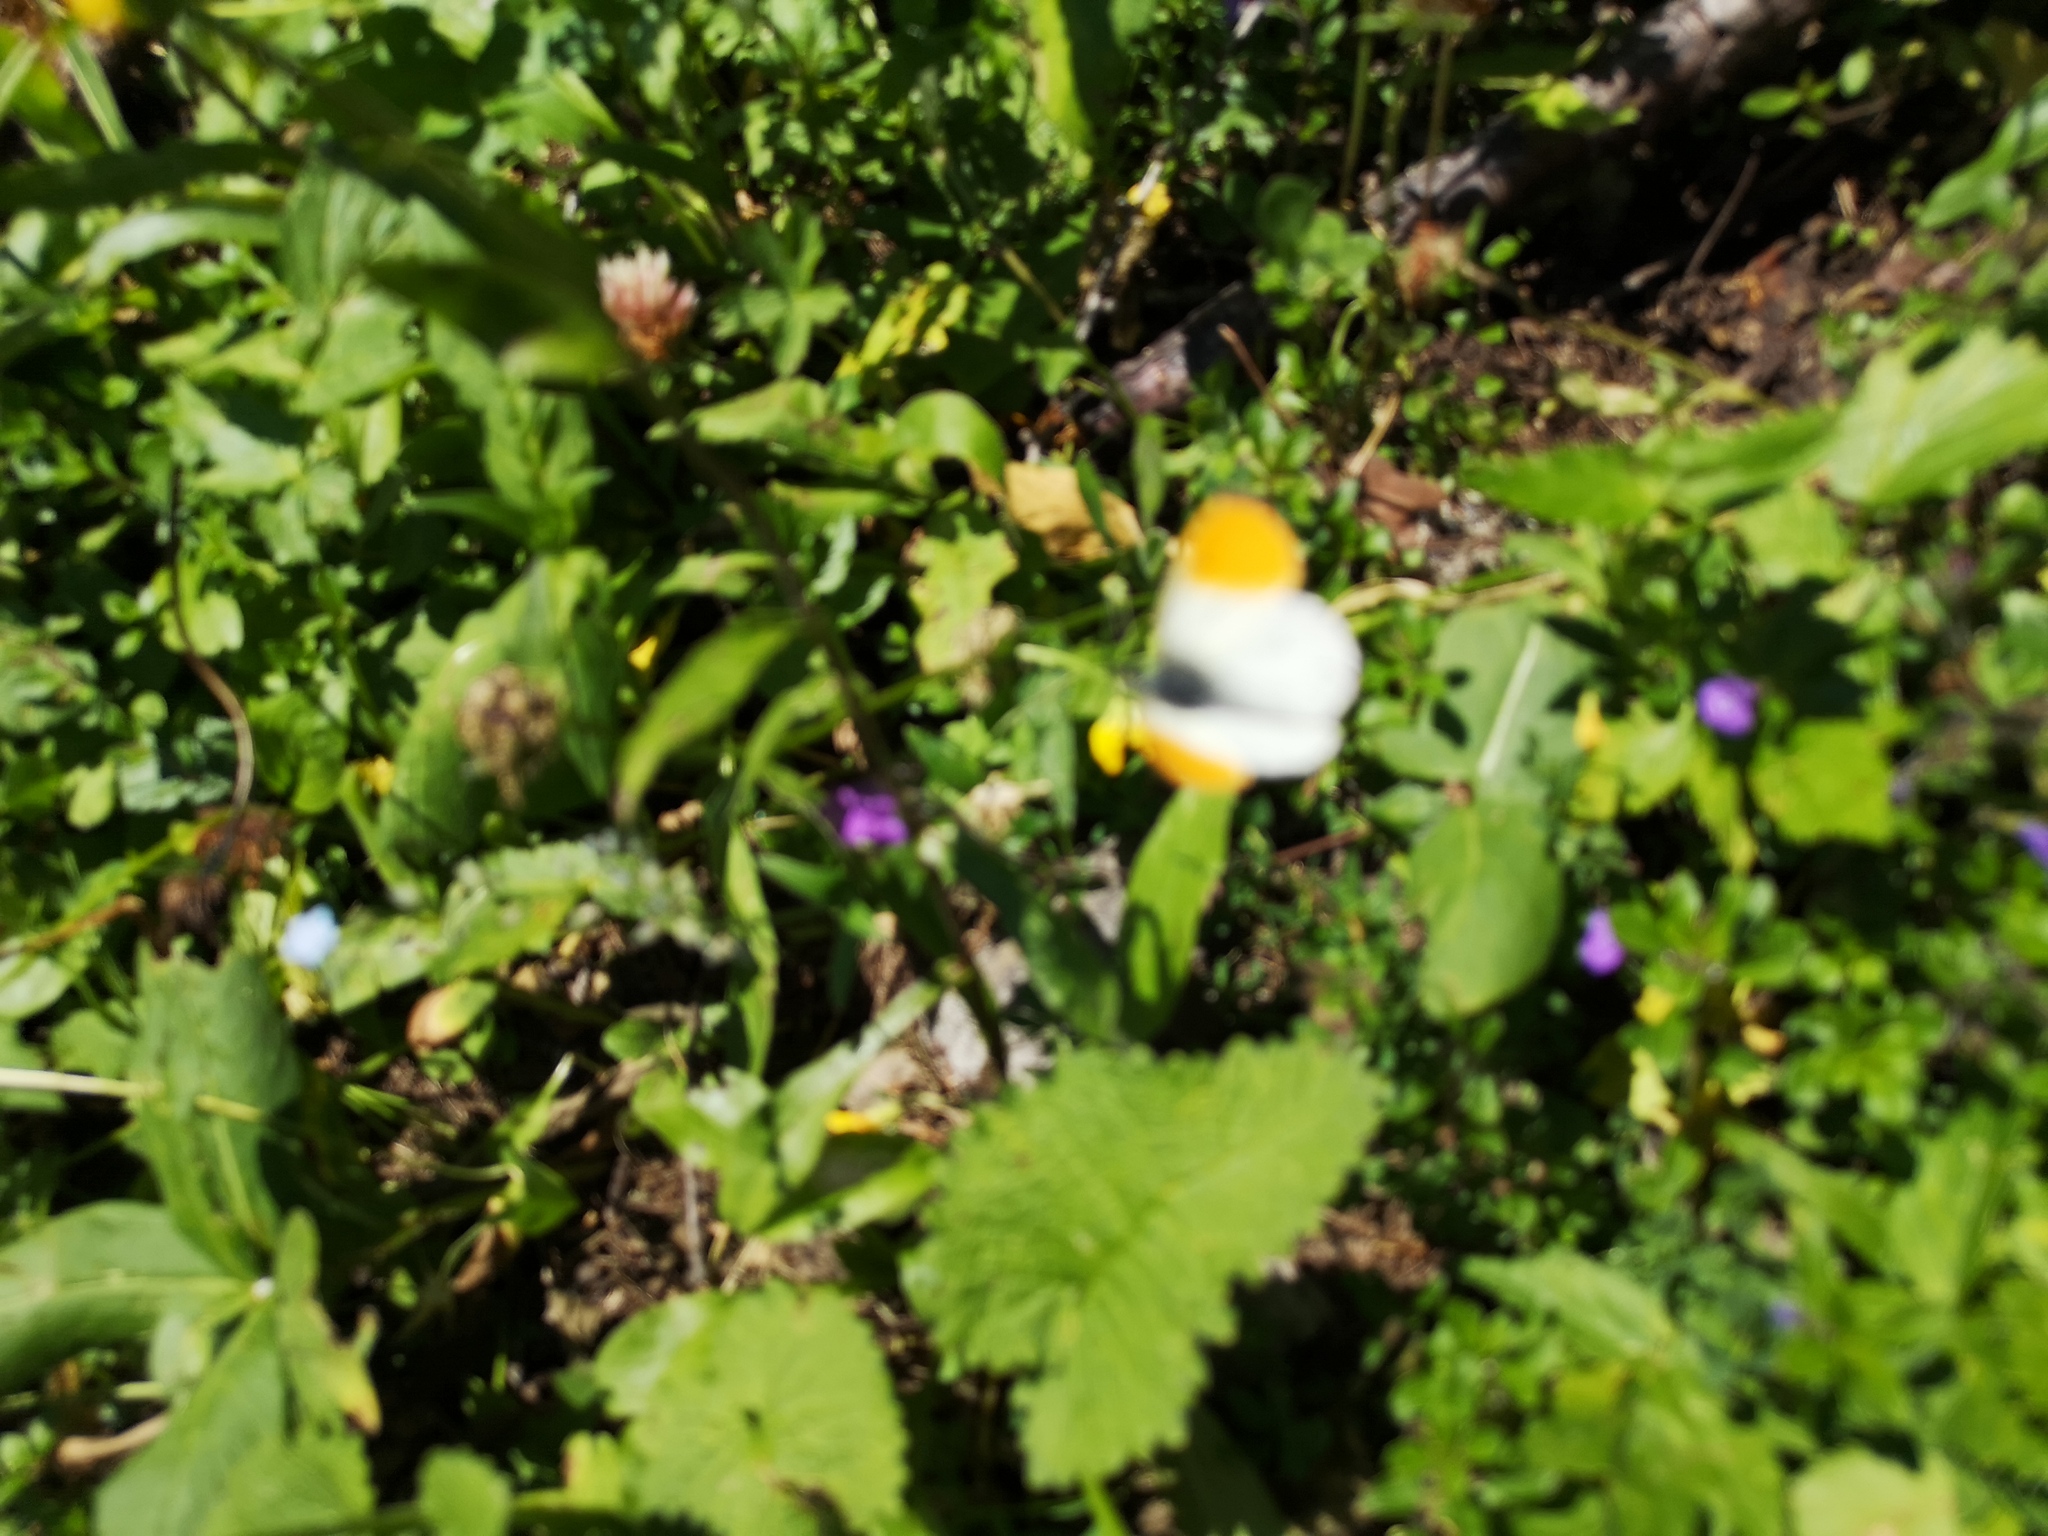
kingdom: Animalia
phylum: Arthropoda
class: Insecta
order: Lepidoptera
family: Pieridae
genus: Anthocharis
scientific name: Anthocharis cardamines
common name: Orange-tip
